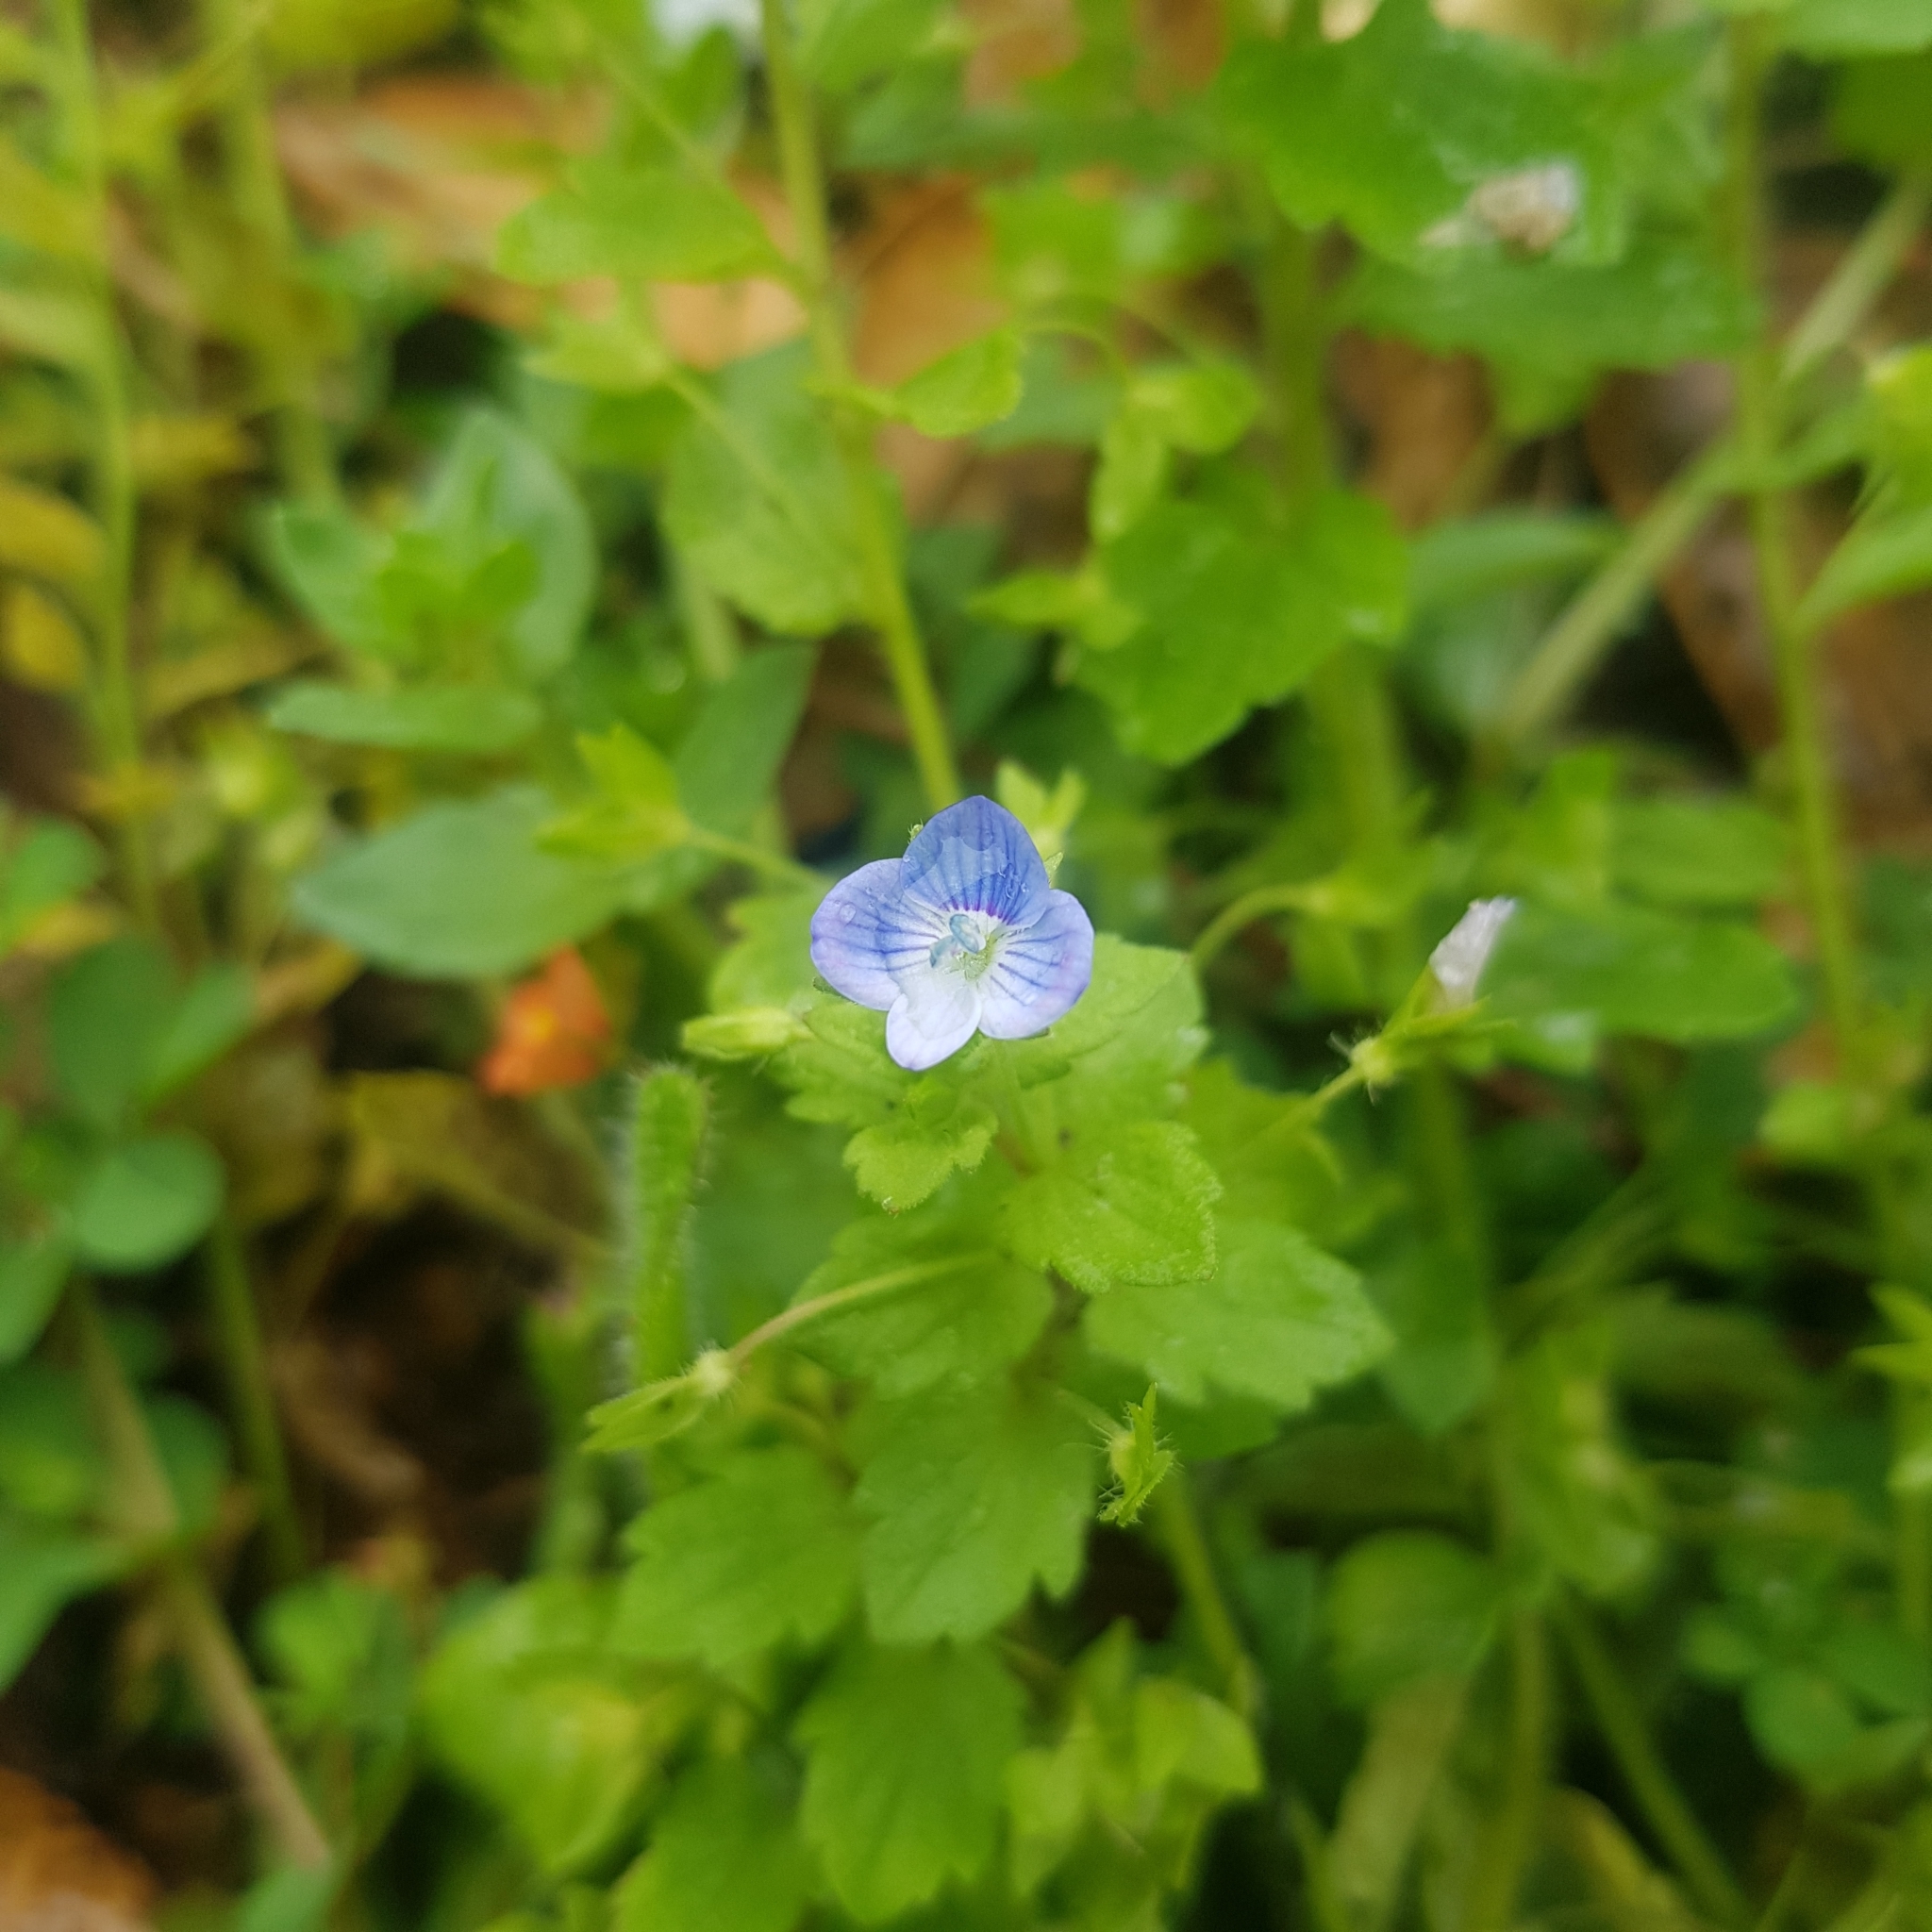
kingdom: Plantae
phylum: Tracheophyta
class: Magnoliopsida
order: Lamiales
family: Plantaginaceae
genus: Veronica
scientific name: Veronica persica
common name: Common field-speedwell
